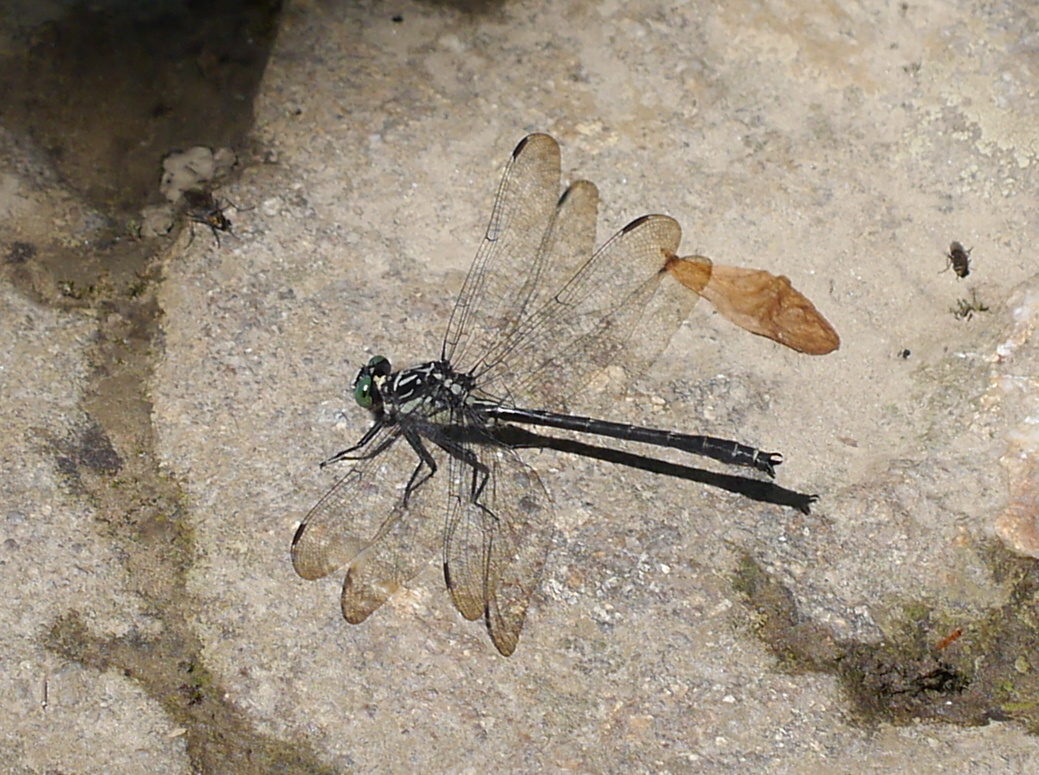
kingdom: Animalia
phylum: Arthropoda
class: Insecta
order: Odonata
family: Gomphidae
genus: Stenogomphurus
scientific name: Stenogomphurus rogersi
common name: Sable clubtail
